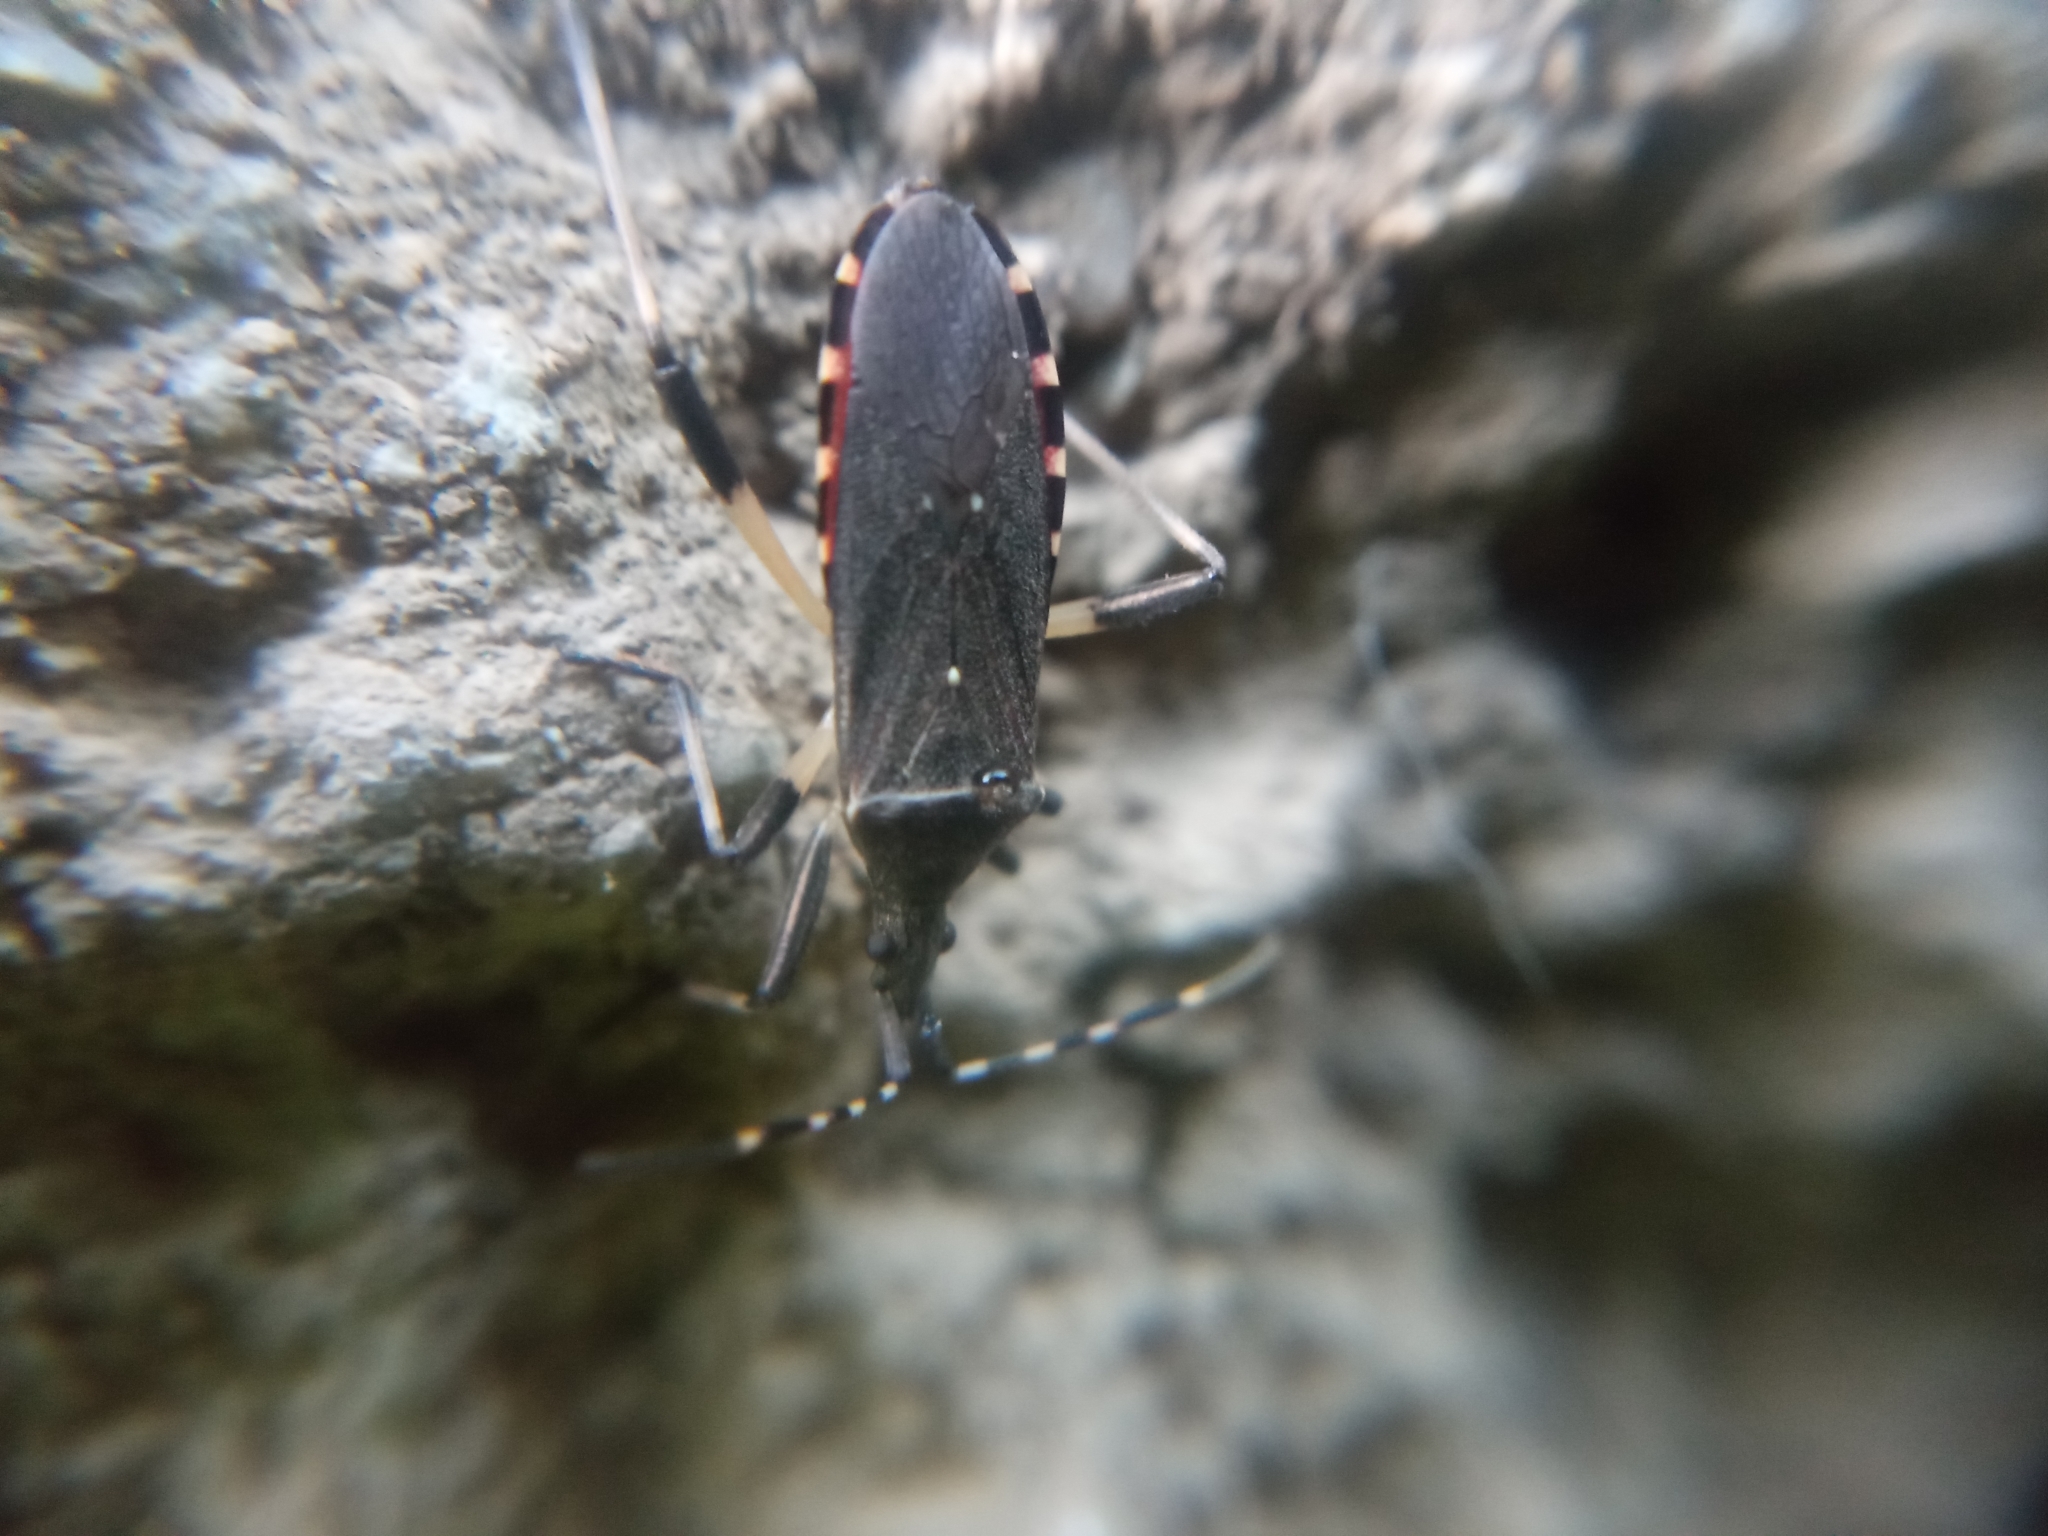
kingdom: Animalia
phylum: Arthropoda
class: Insecta
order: Hemiptera
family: Stenocephalidae
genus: Dicranocephalus
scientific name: Dicranocephalus agilis
